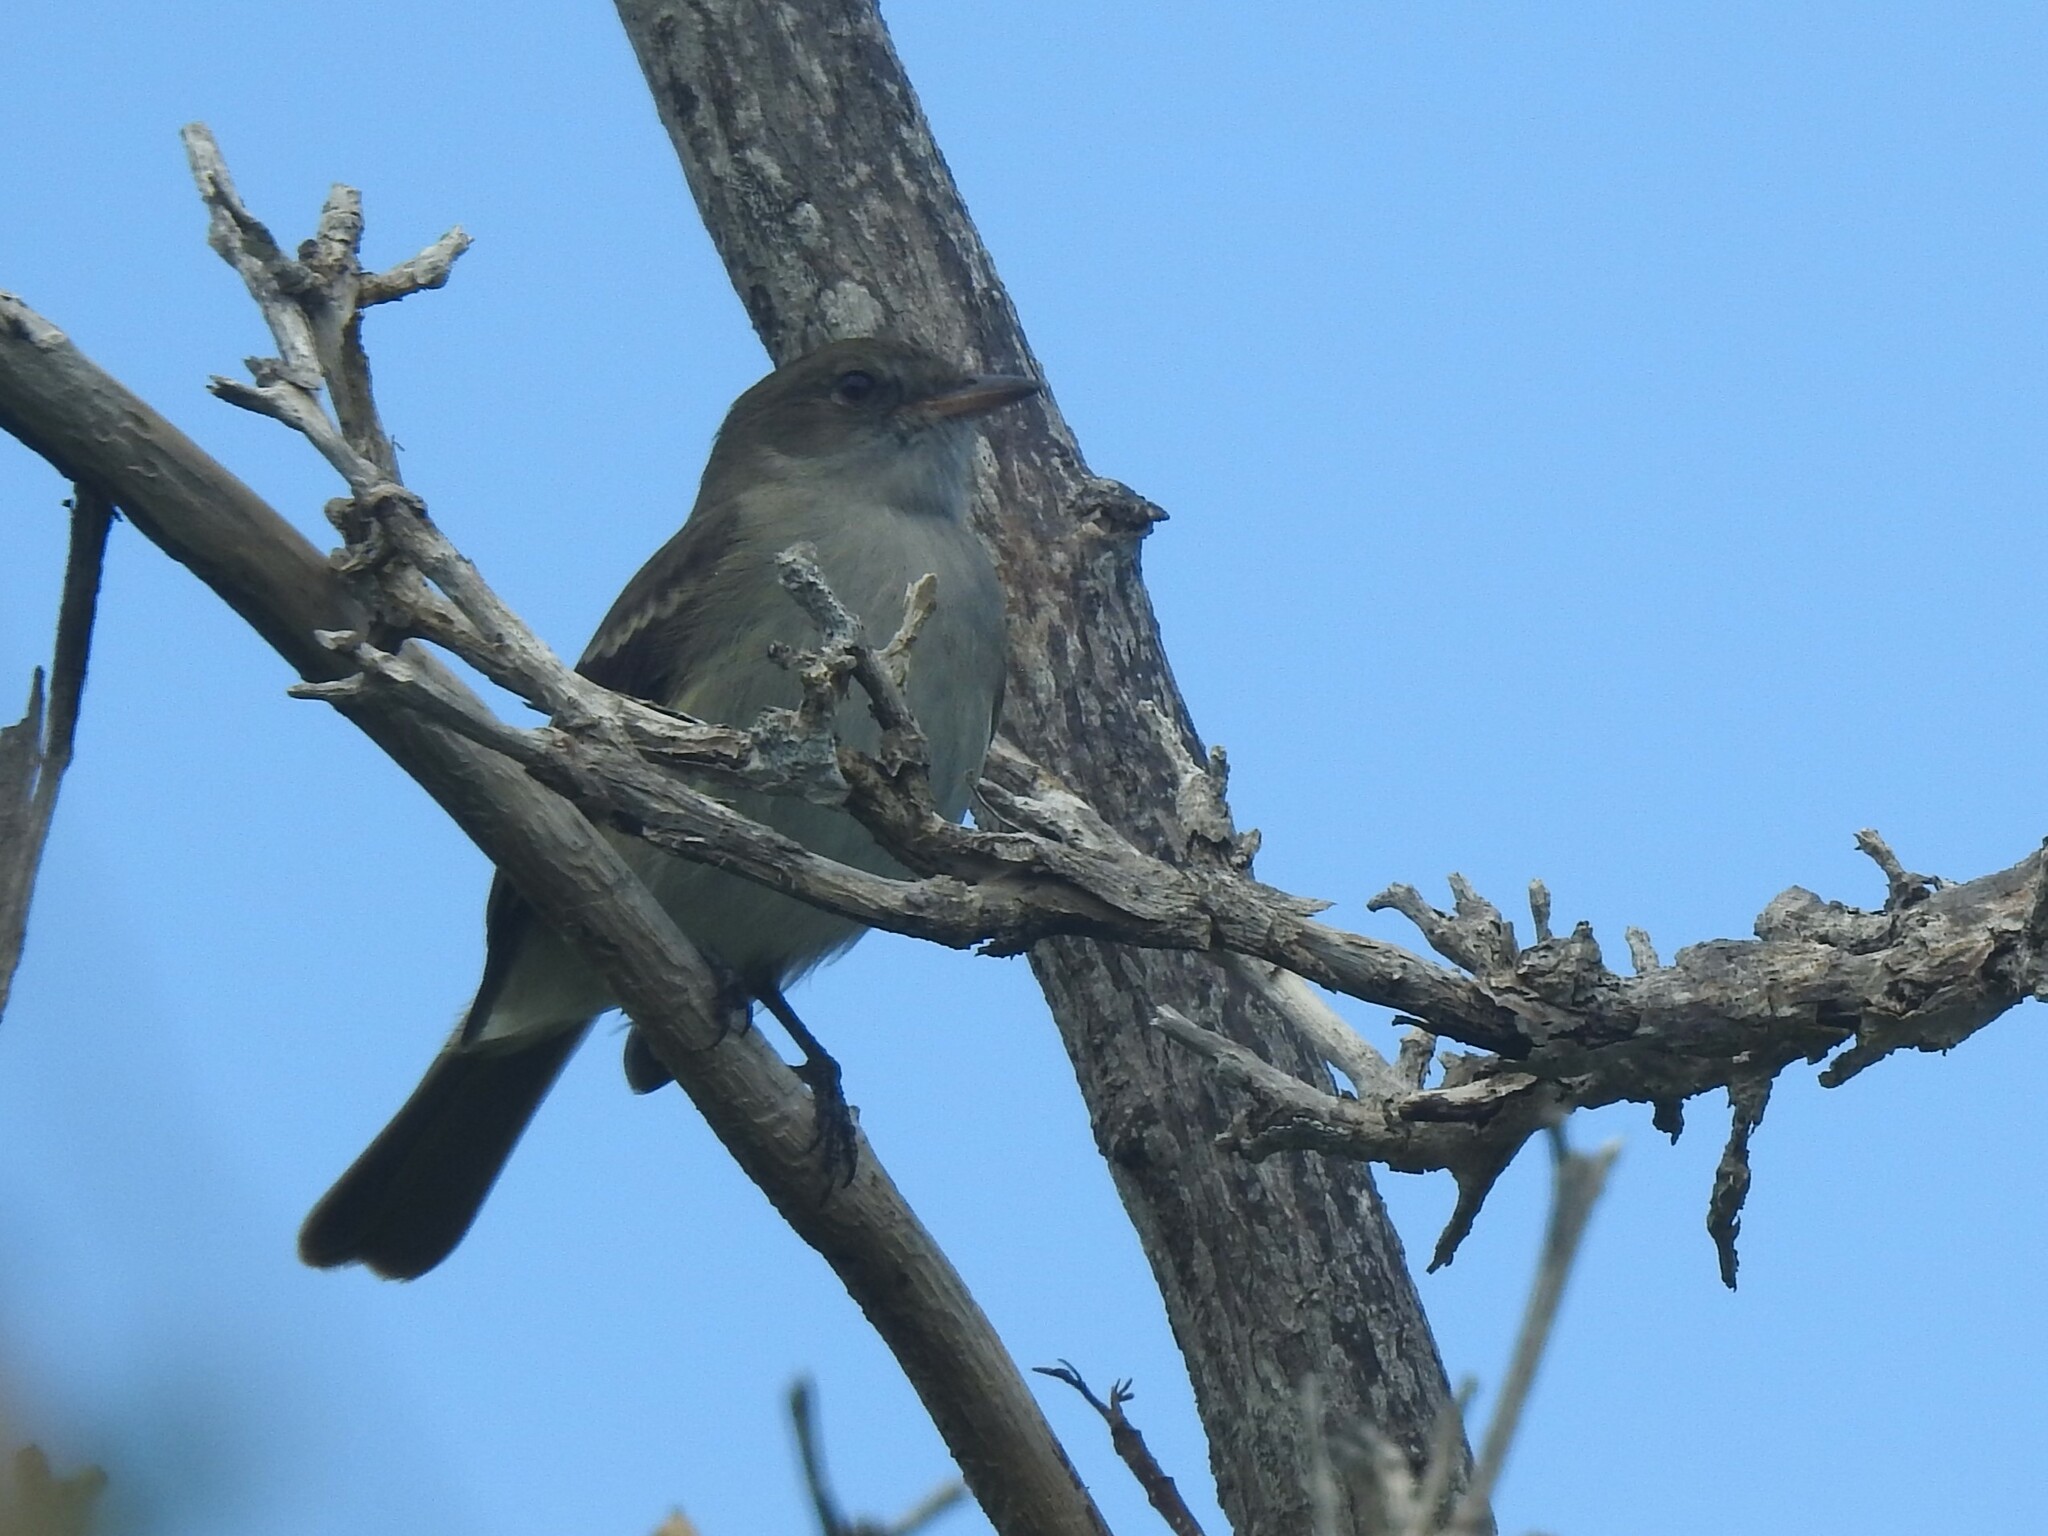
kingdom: Animalia
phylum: Chordata
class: Aves
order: Passeriformes
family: Tyrannidae
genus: Elaenia
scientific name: Elaenia martinica
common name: Caribbean elaenia
